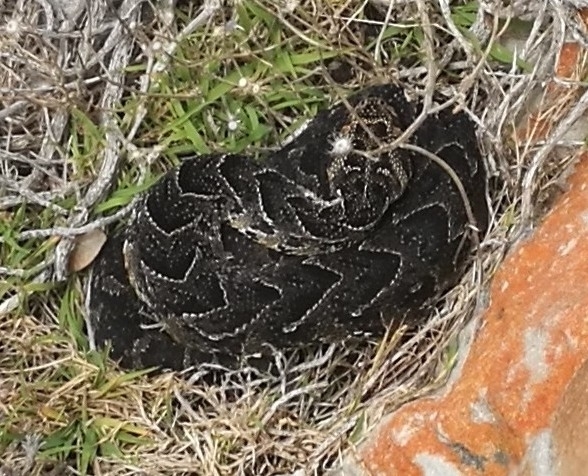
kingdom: Animalia
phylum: Chordata
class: Squamata
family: Viperidae
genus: Bitis
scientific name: Bitis arietans
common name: Puff adder
